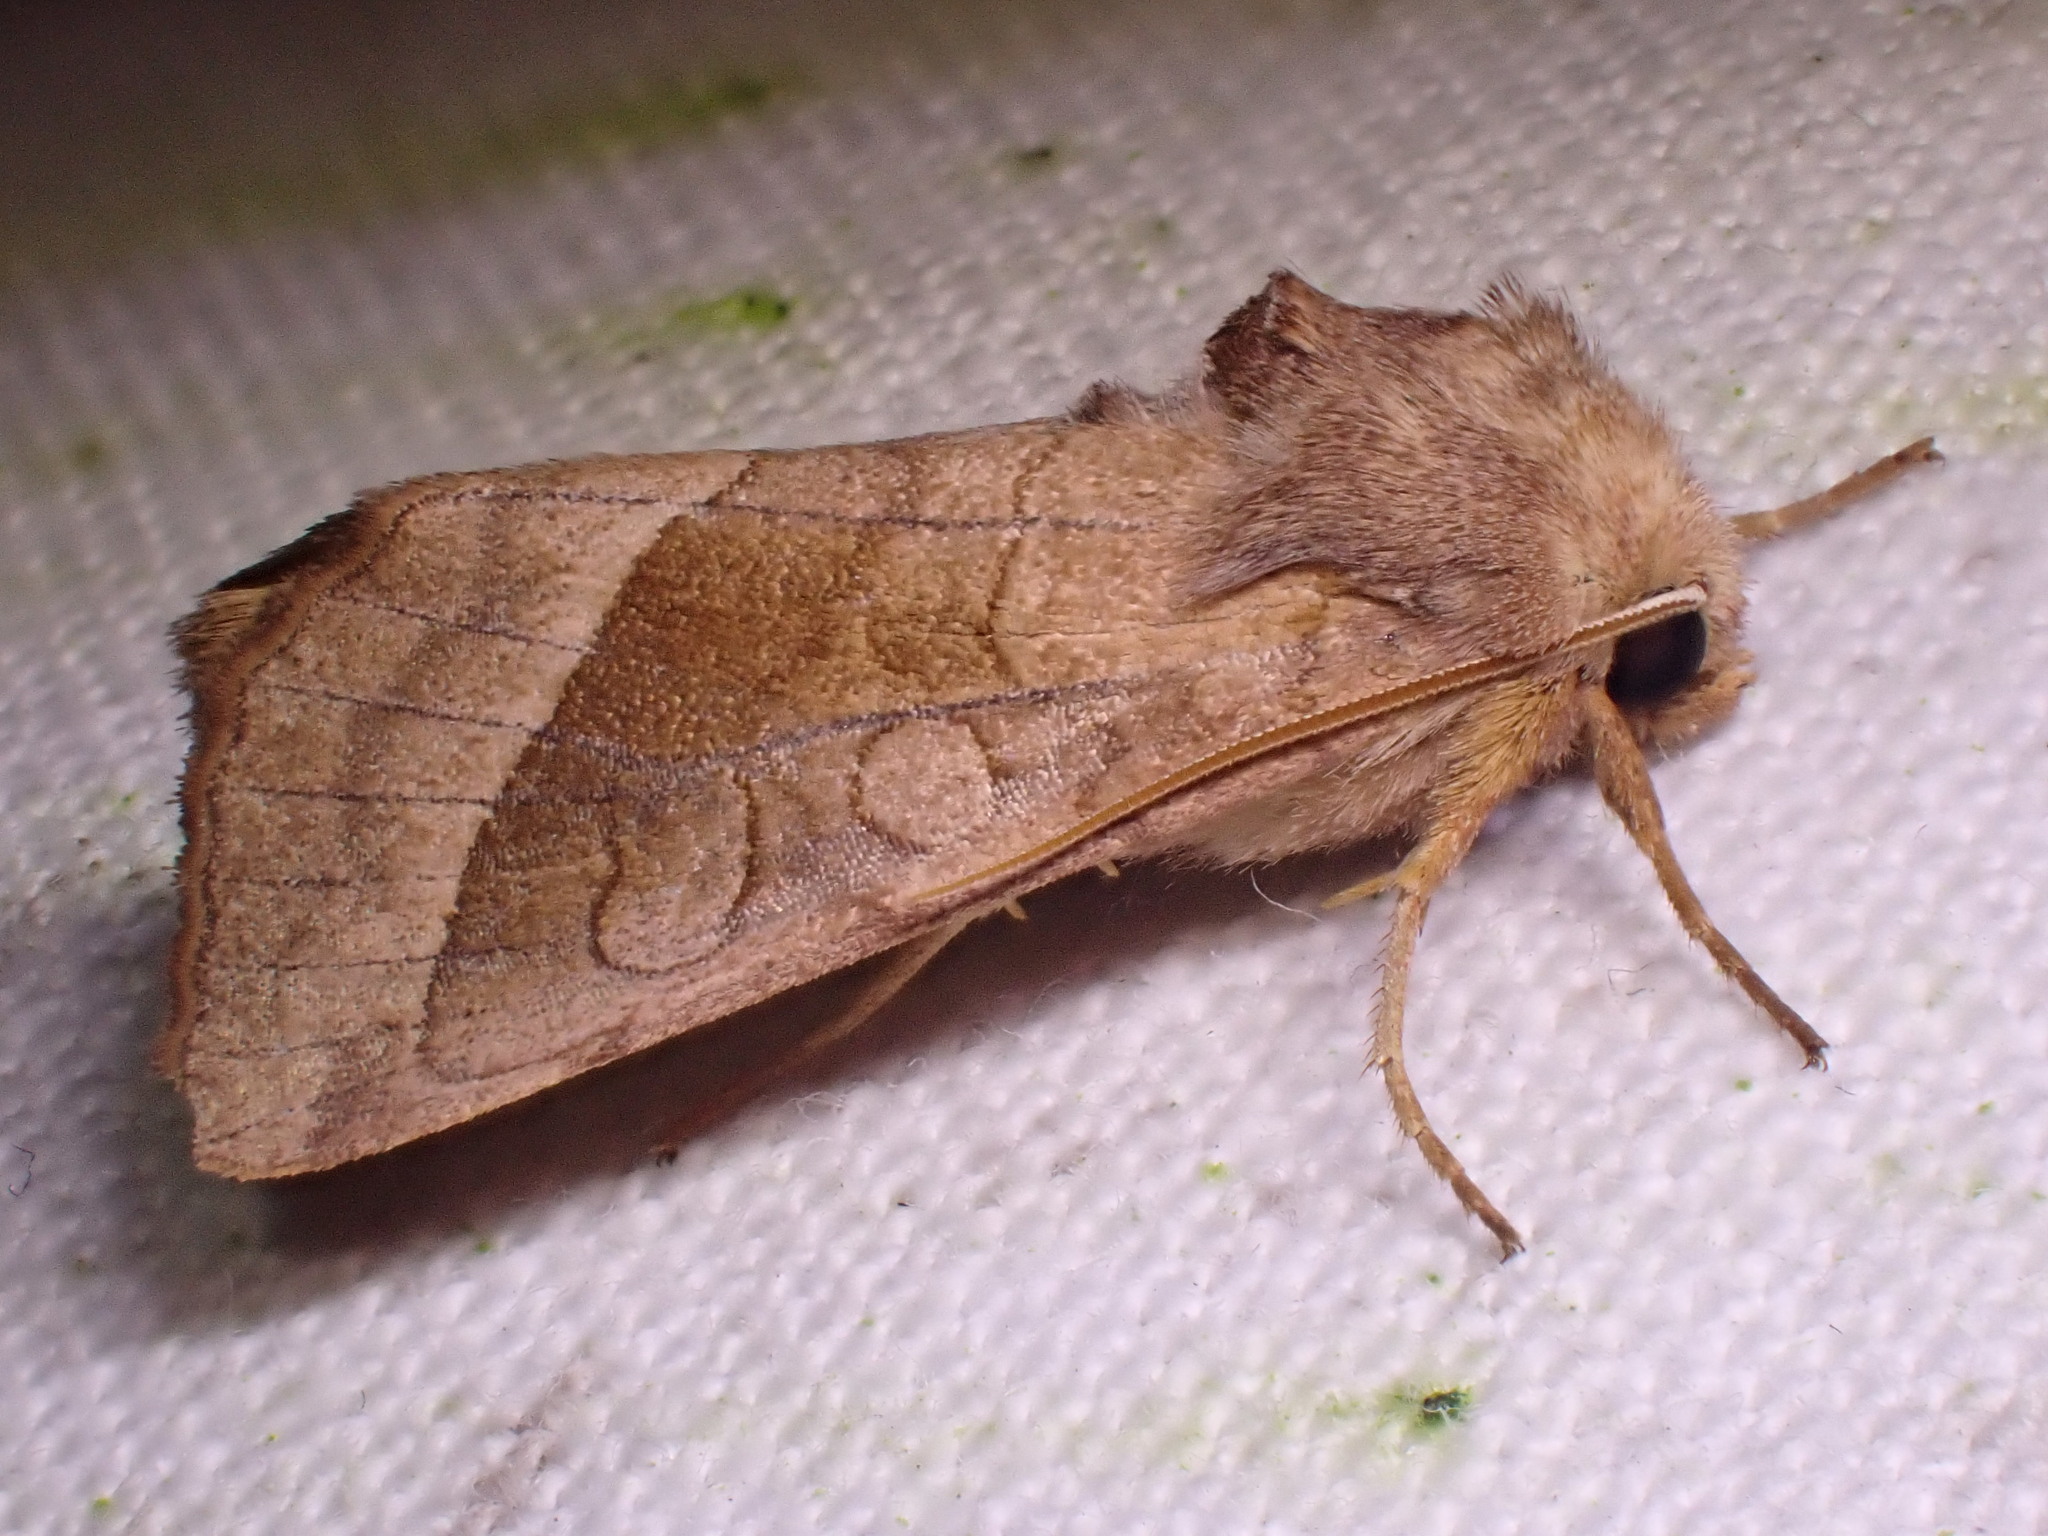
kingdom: Animalia
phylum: Arthropoda
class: Insecta
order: Lepidoptera
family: Noctuidae
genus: Hydraecia
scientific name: Hydraecia micacea
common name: Rosy rustic
